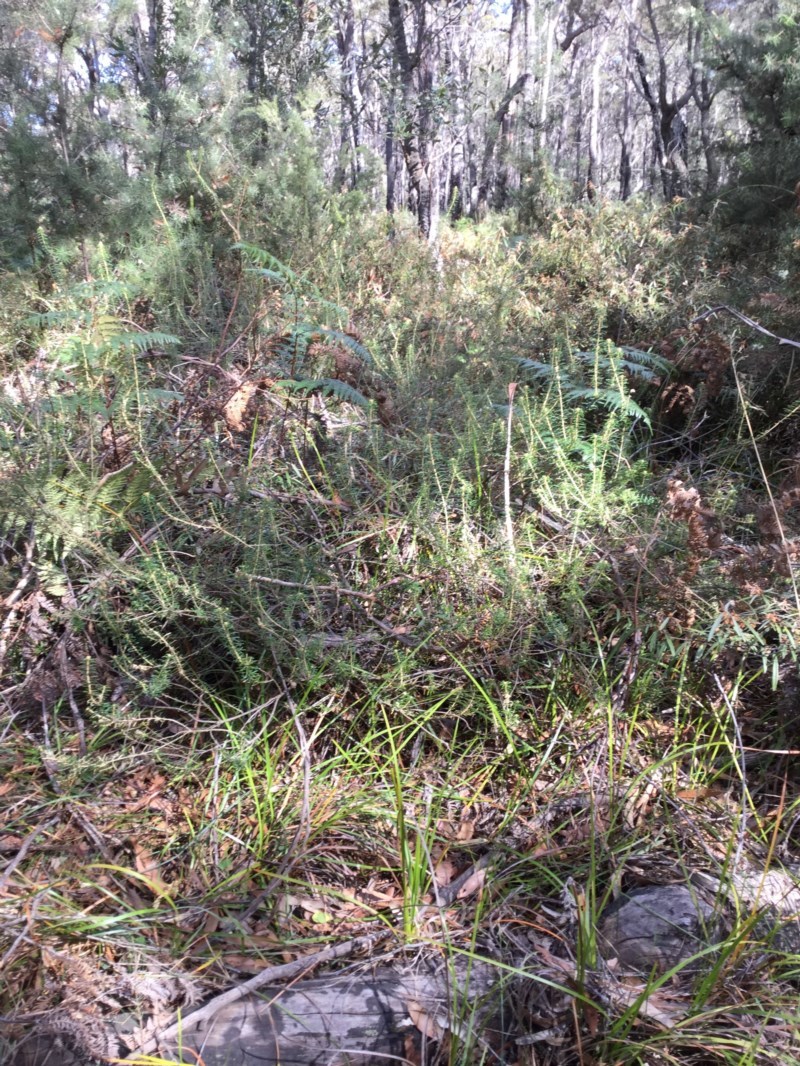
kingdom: Plantae
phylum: Tracheophyta
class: Magnoliopsida
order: Apiales
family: Araliaceae
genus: Astrotricha
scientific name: Astrotricha
